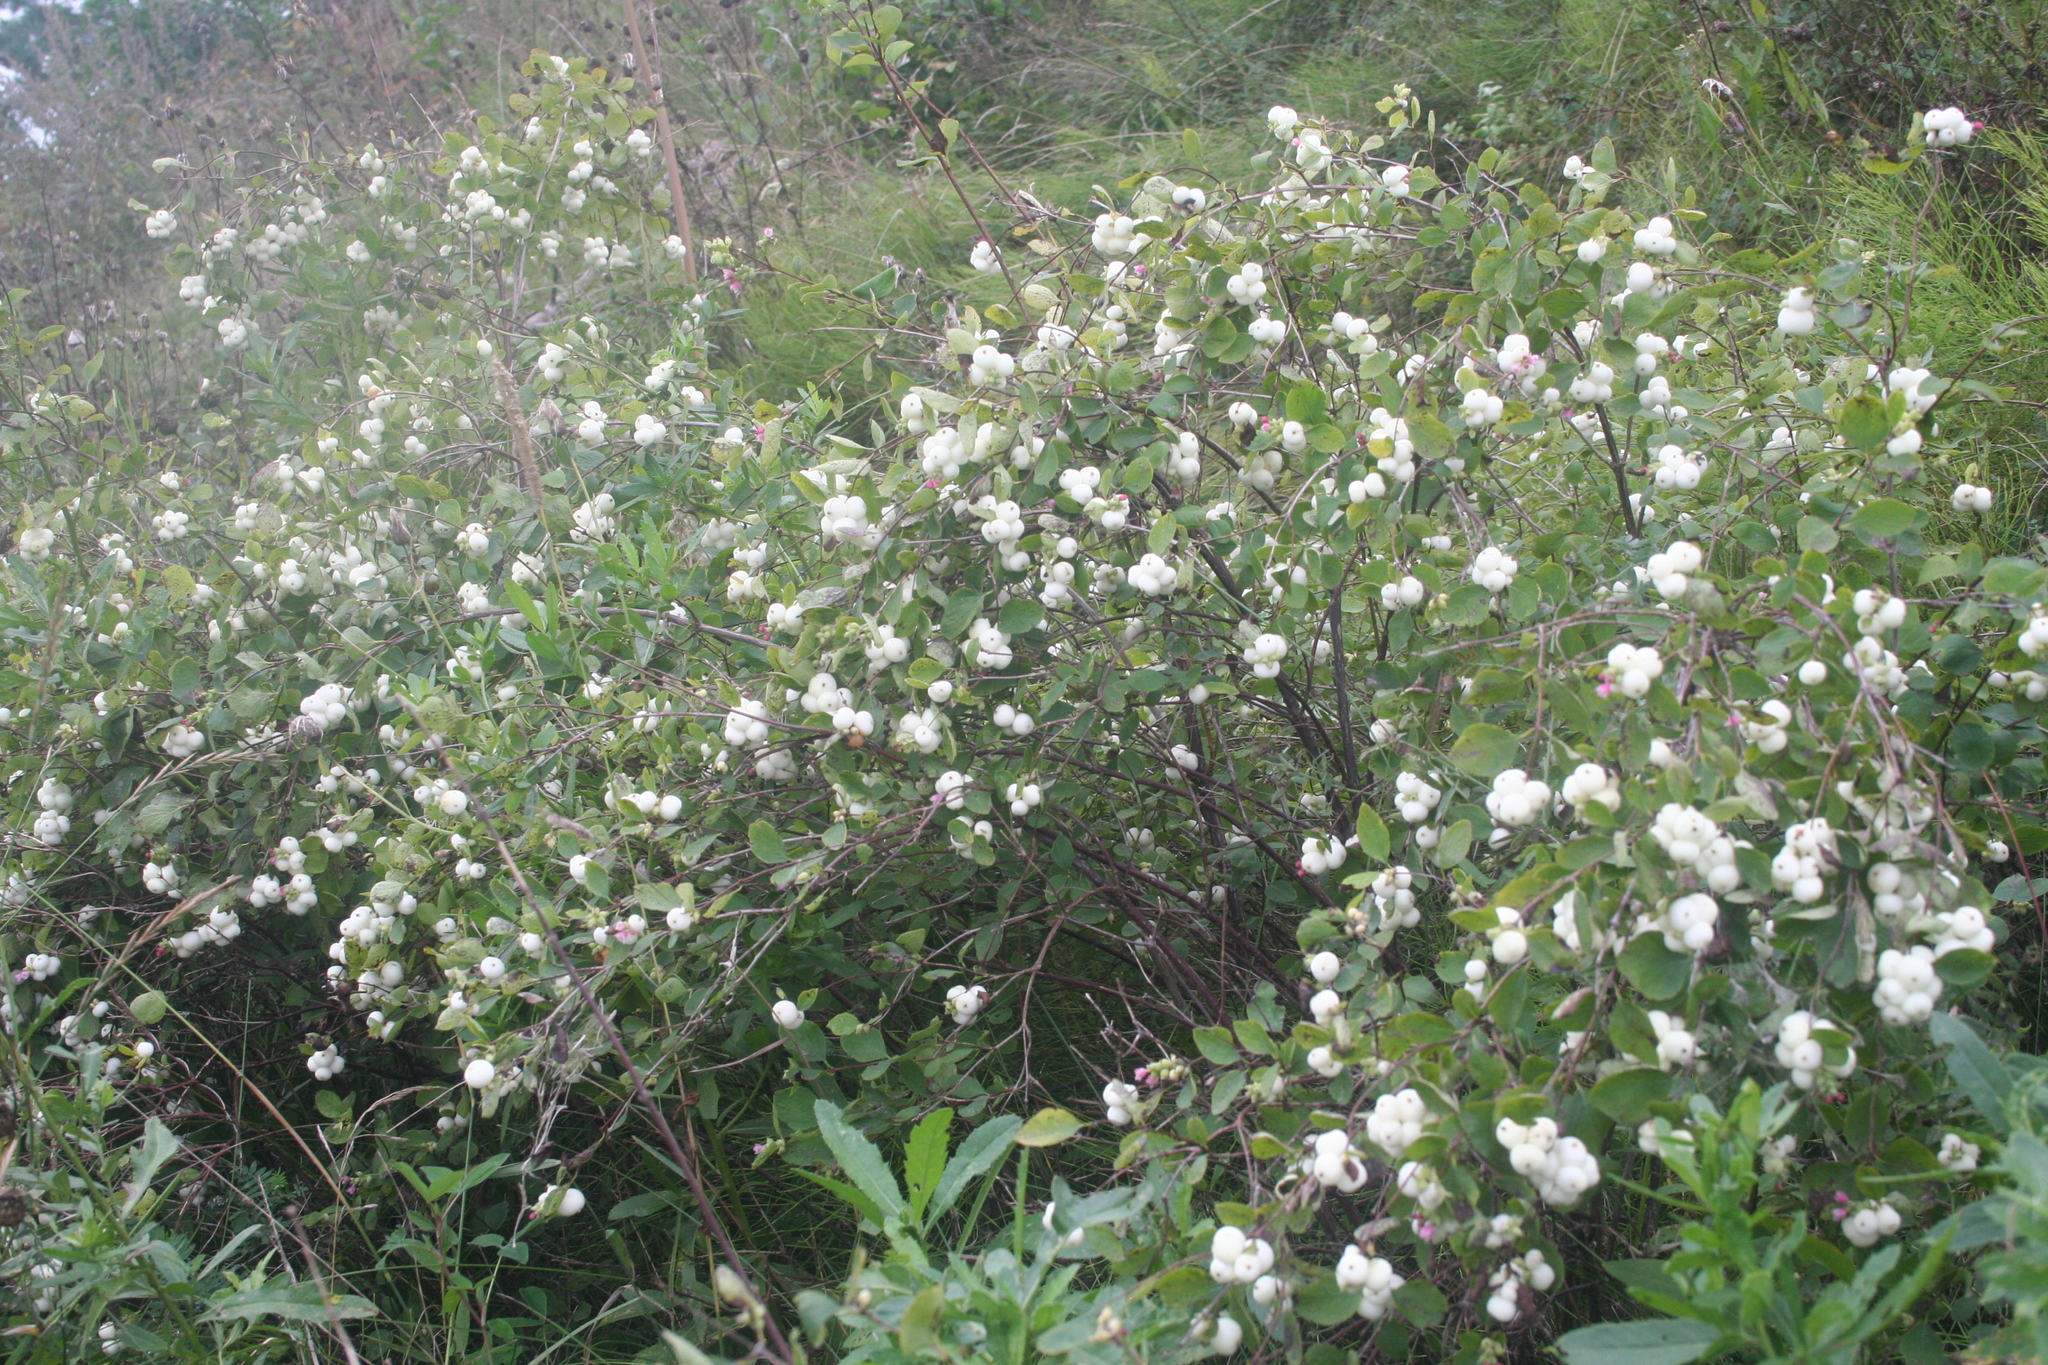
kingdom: Plantae
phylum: Tracheophyta
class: Magnoliopsida
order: Dipsacales
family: Caprifoliaceae
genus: Symphoricarpos
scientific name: Symphoricarpos albus
